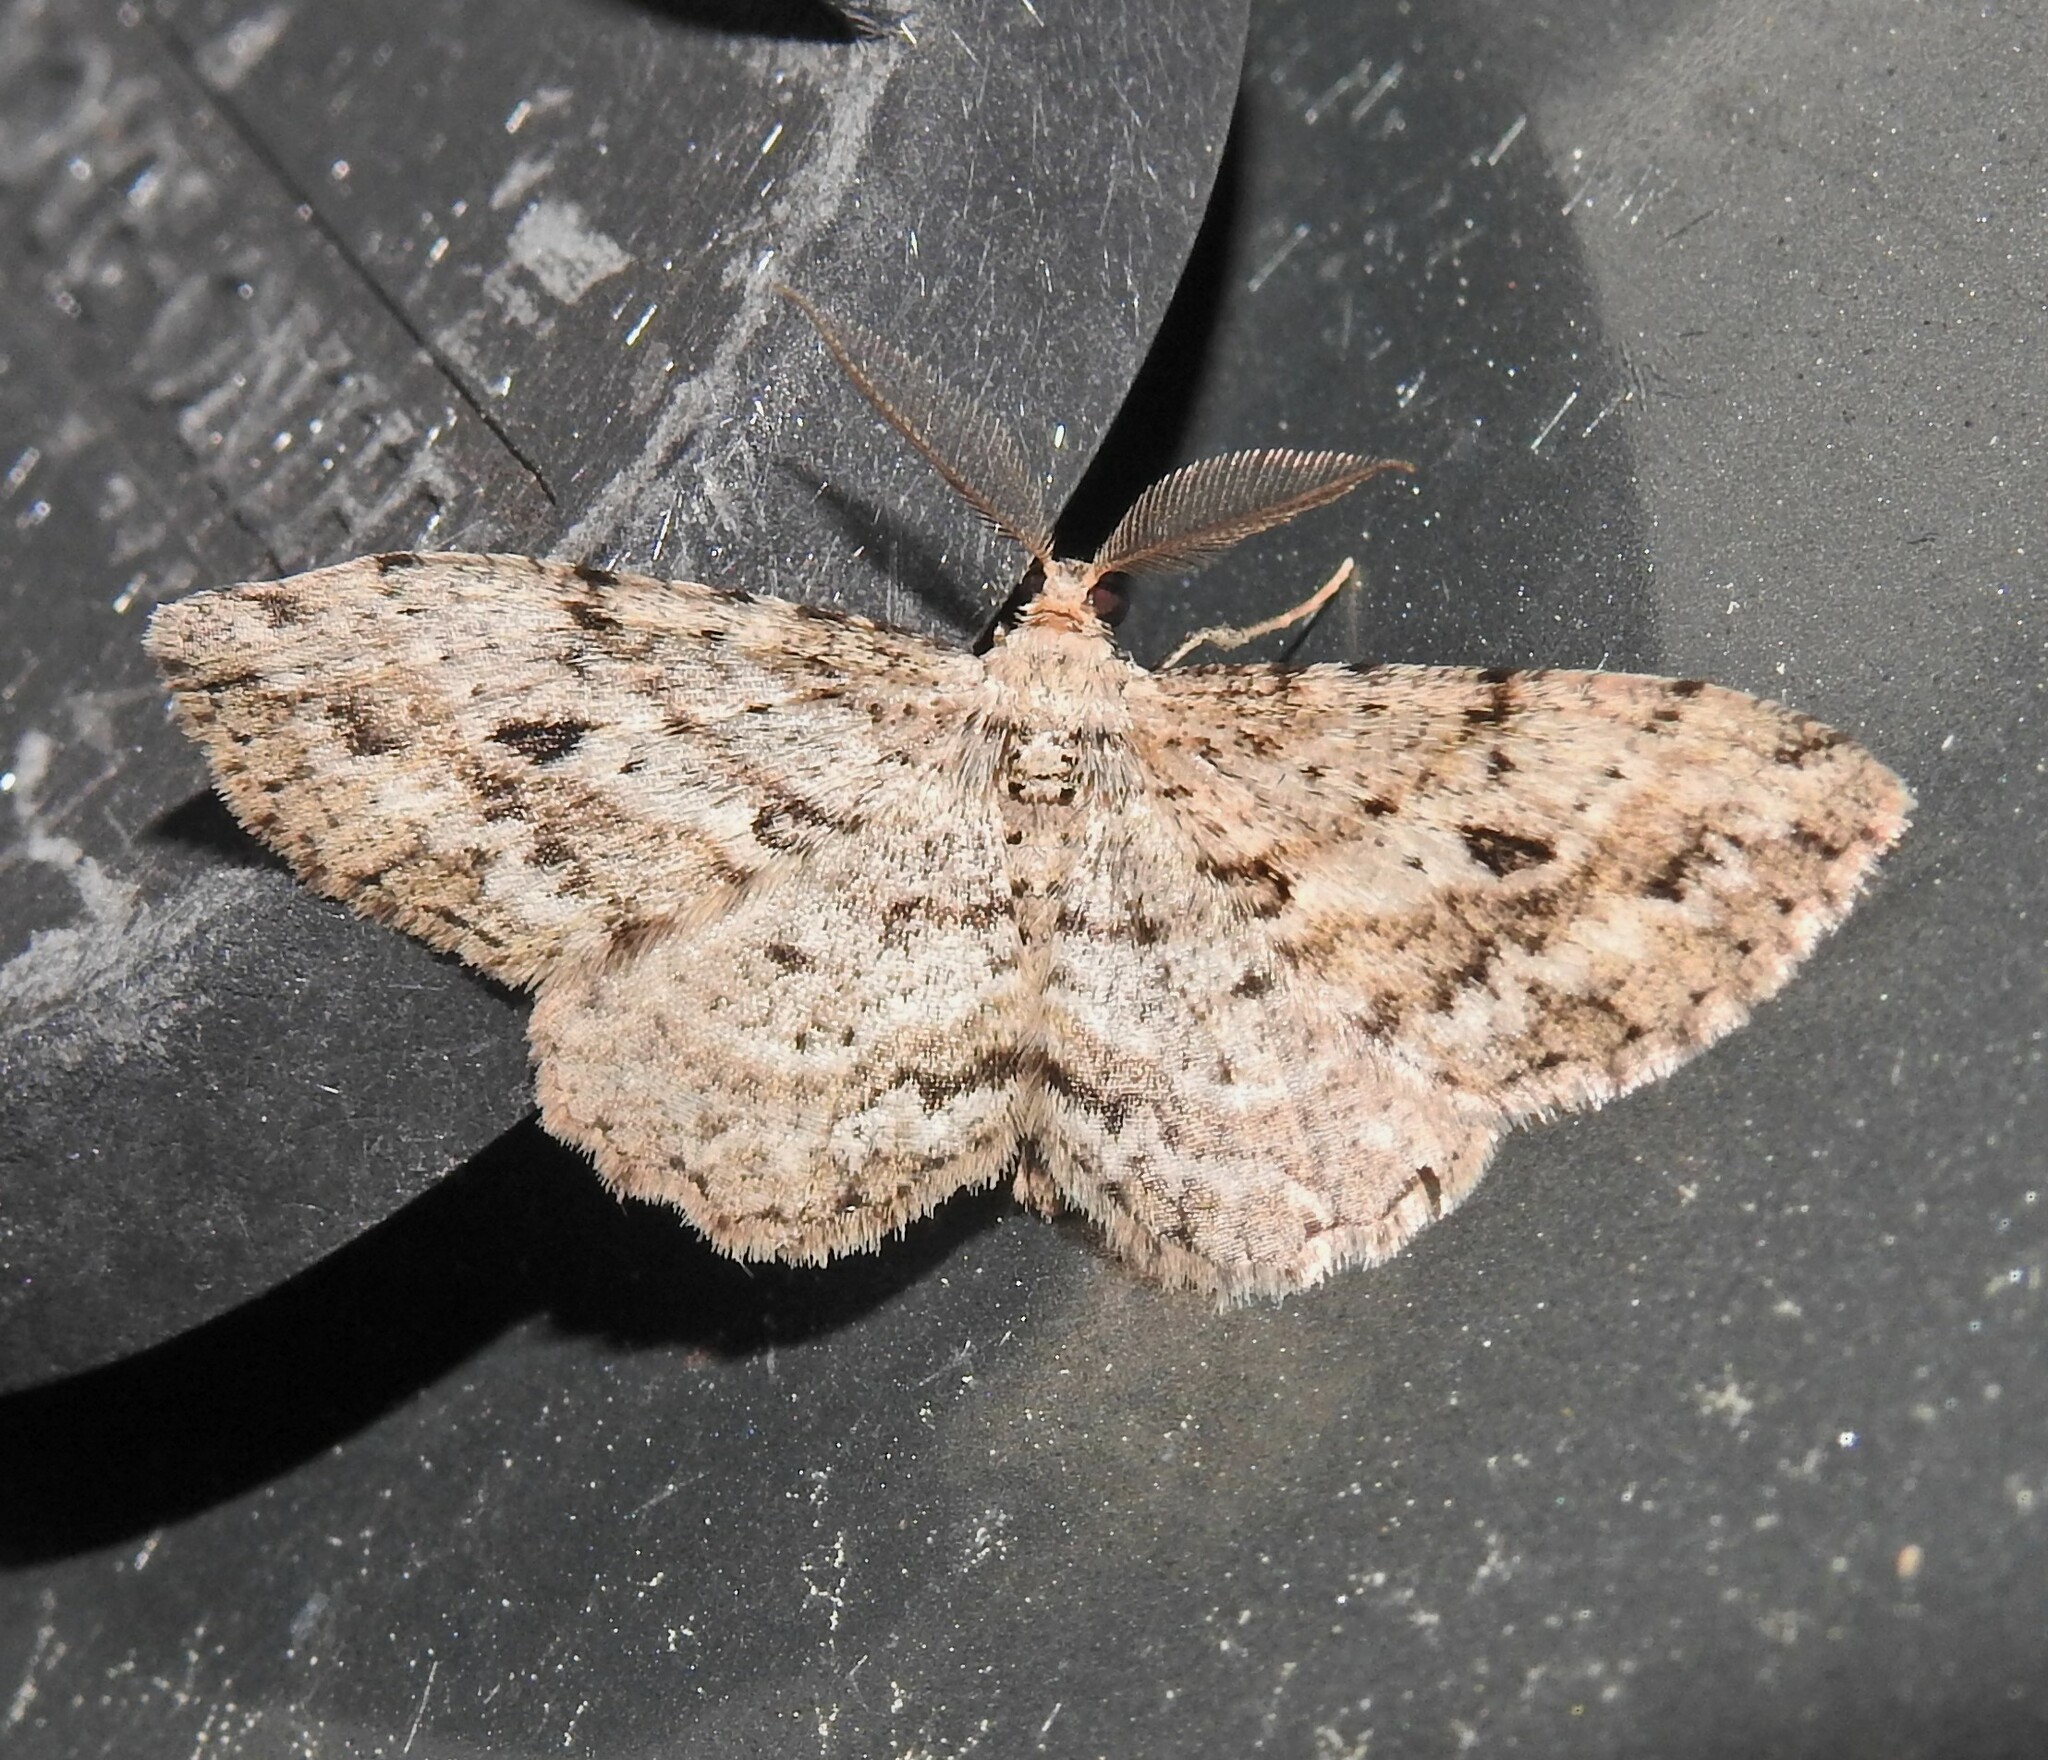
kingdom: Animalia
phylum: Arthropoda
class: Insecta
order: Lepidoptera
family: Geometridae
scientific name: Geometridae
